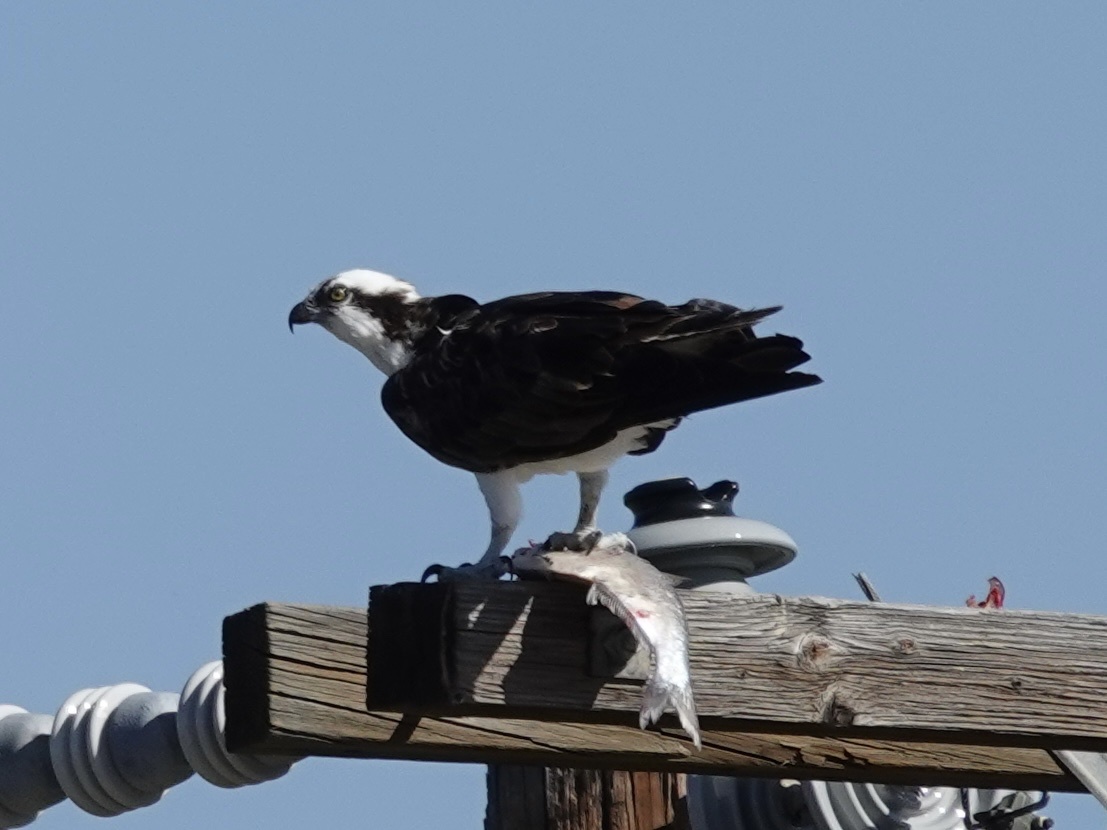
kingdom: Animalia
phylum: Chordata
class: Aves
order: Accipitriformes
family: Pandionidae
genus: Pandion
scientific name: Pandion haliaetus
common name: Osprey
